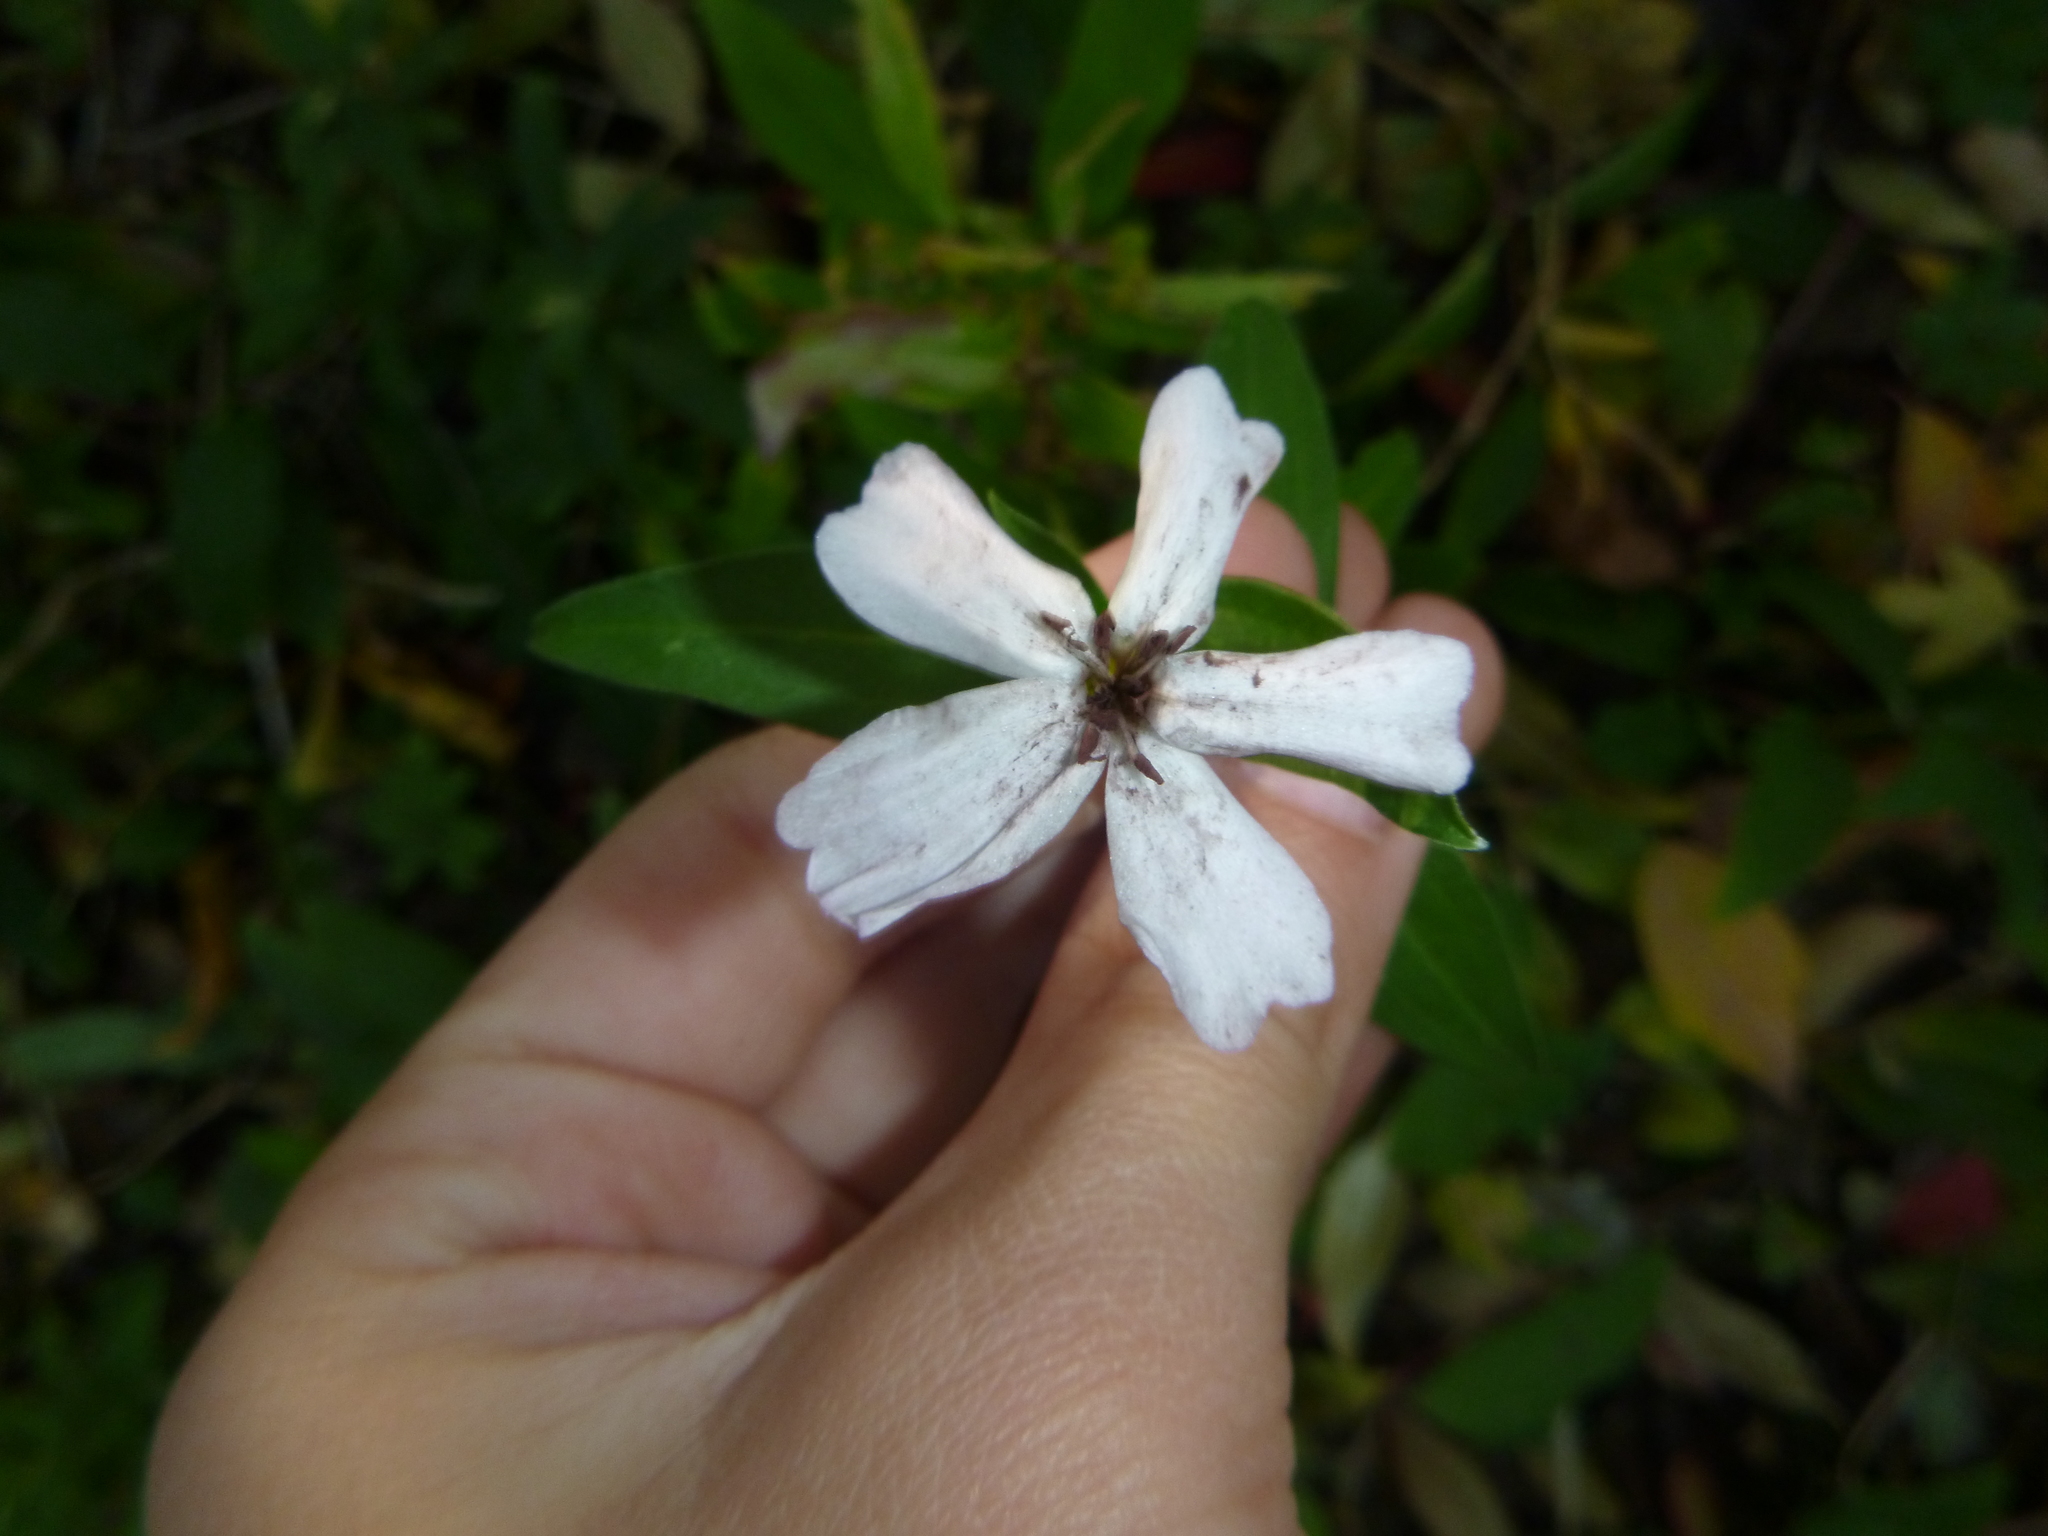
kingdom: Plantae
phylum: Tracheophyta
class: Magnoliopsida
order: Caryophyllales
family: Caryophyllaceae
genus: Silene
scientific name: Silene latifolia
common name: White campion
